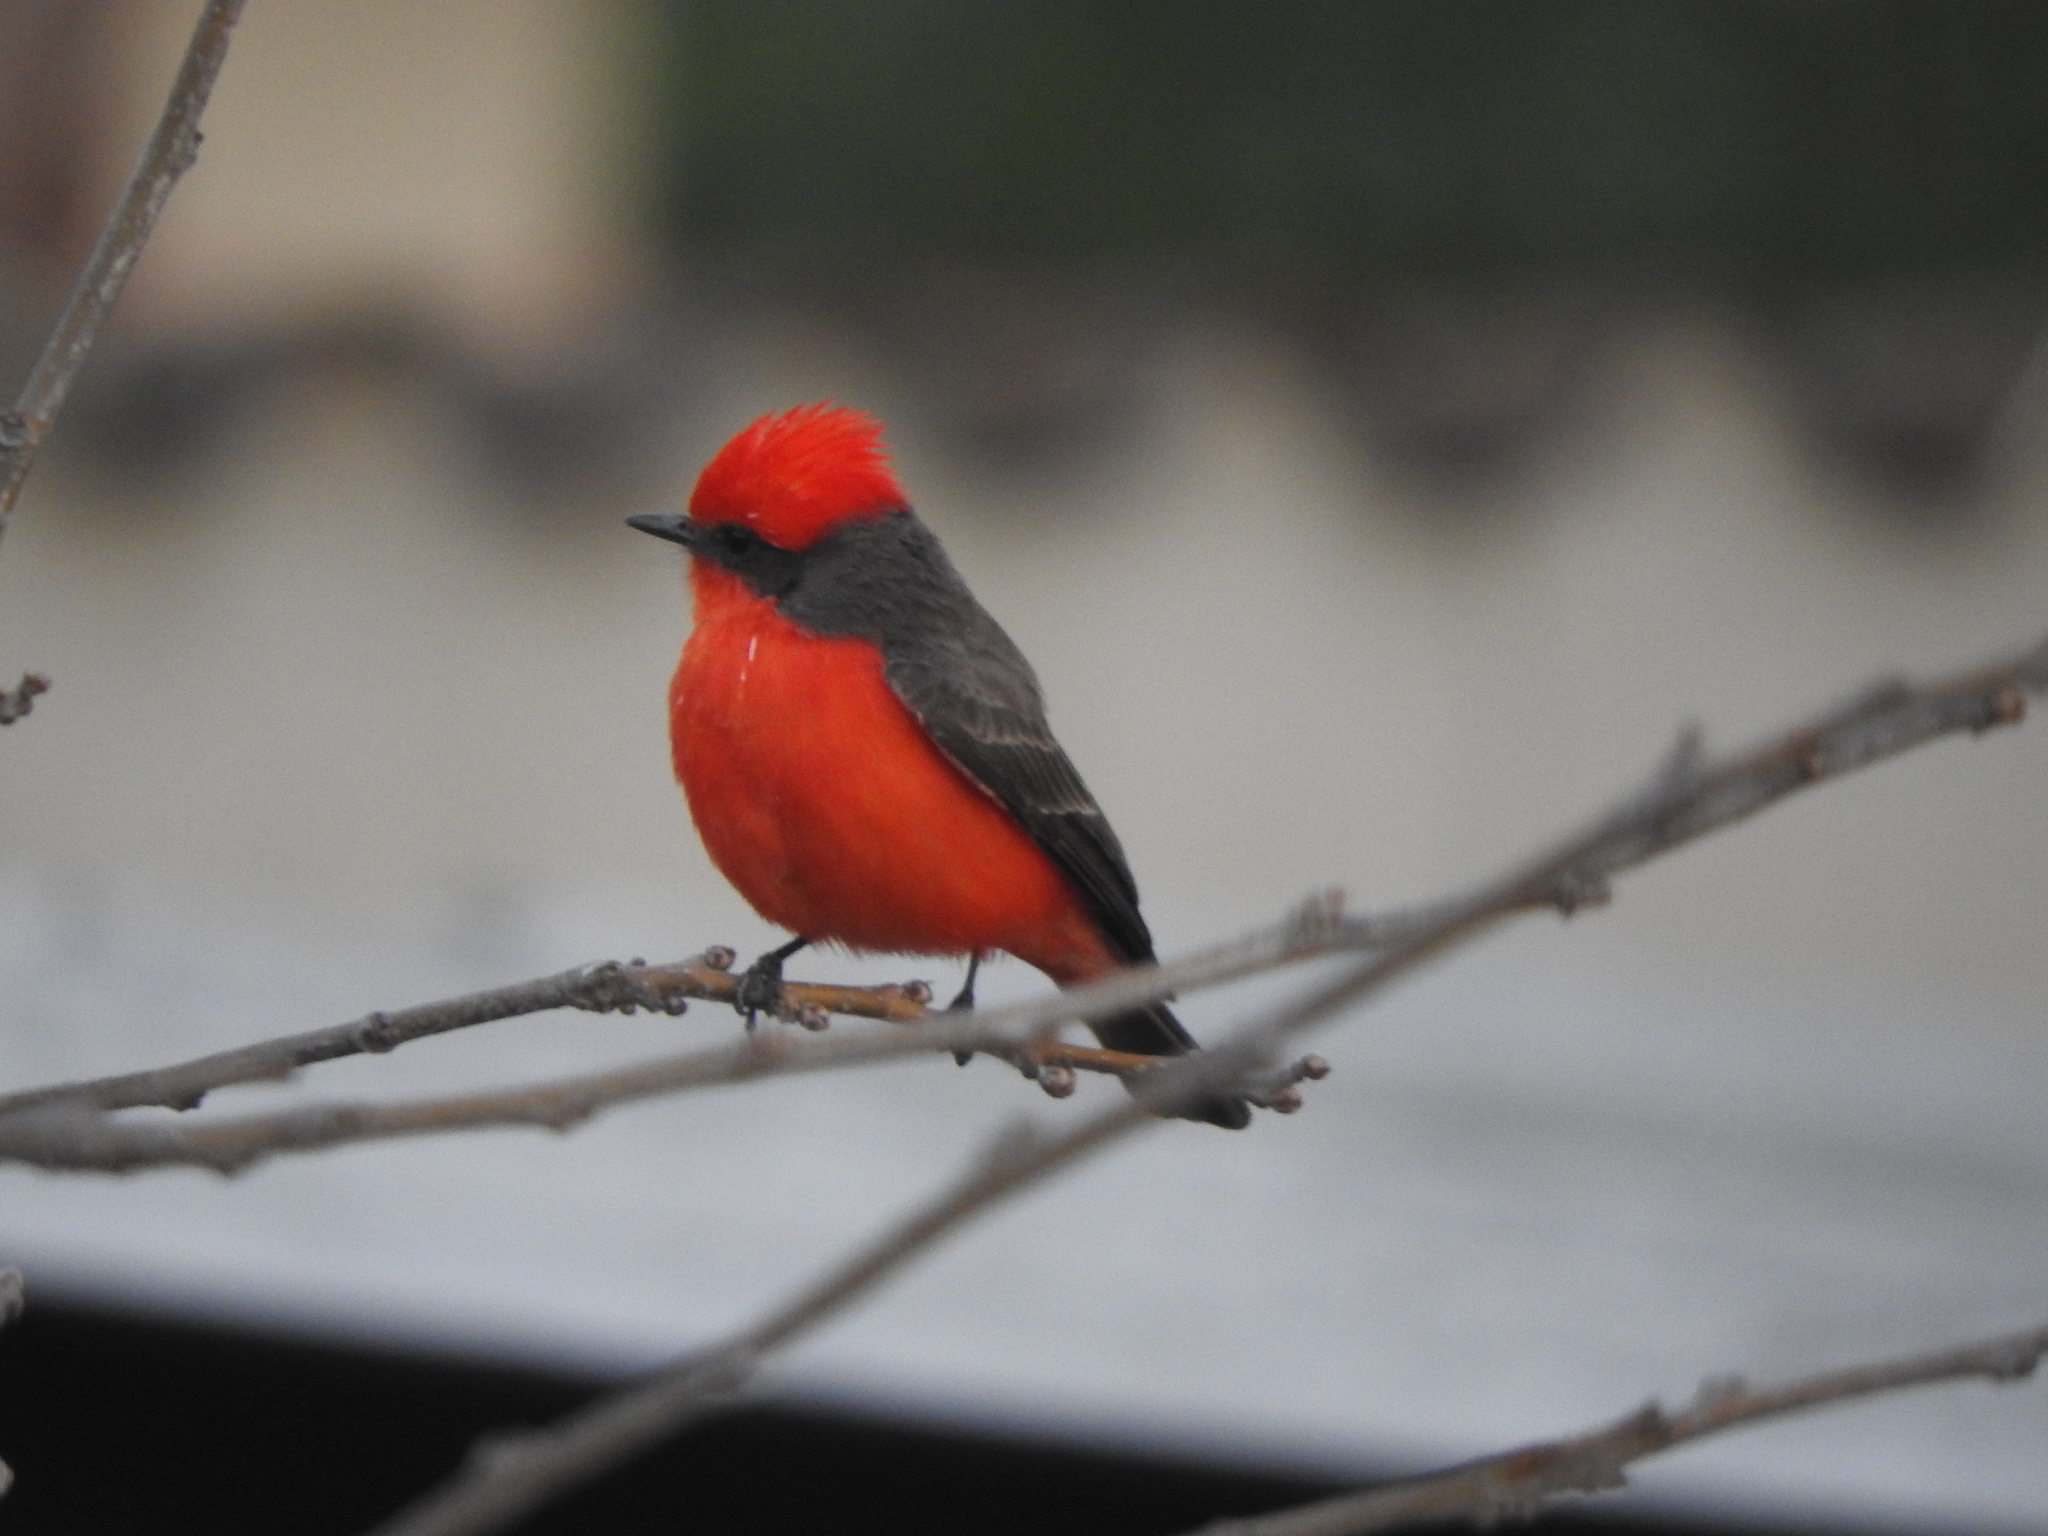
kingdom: Animalia
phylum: Chordata
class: Aves
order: Passeriformes
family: Tyrannidae
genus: Pyrocephalus
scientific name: Pyrocephalus rubinus
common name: Vermilion flycatcher
